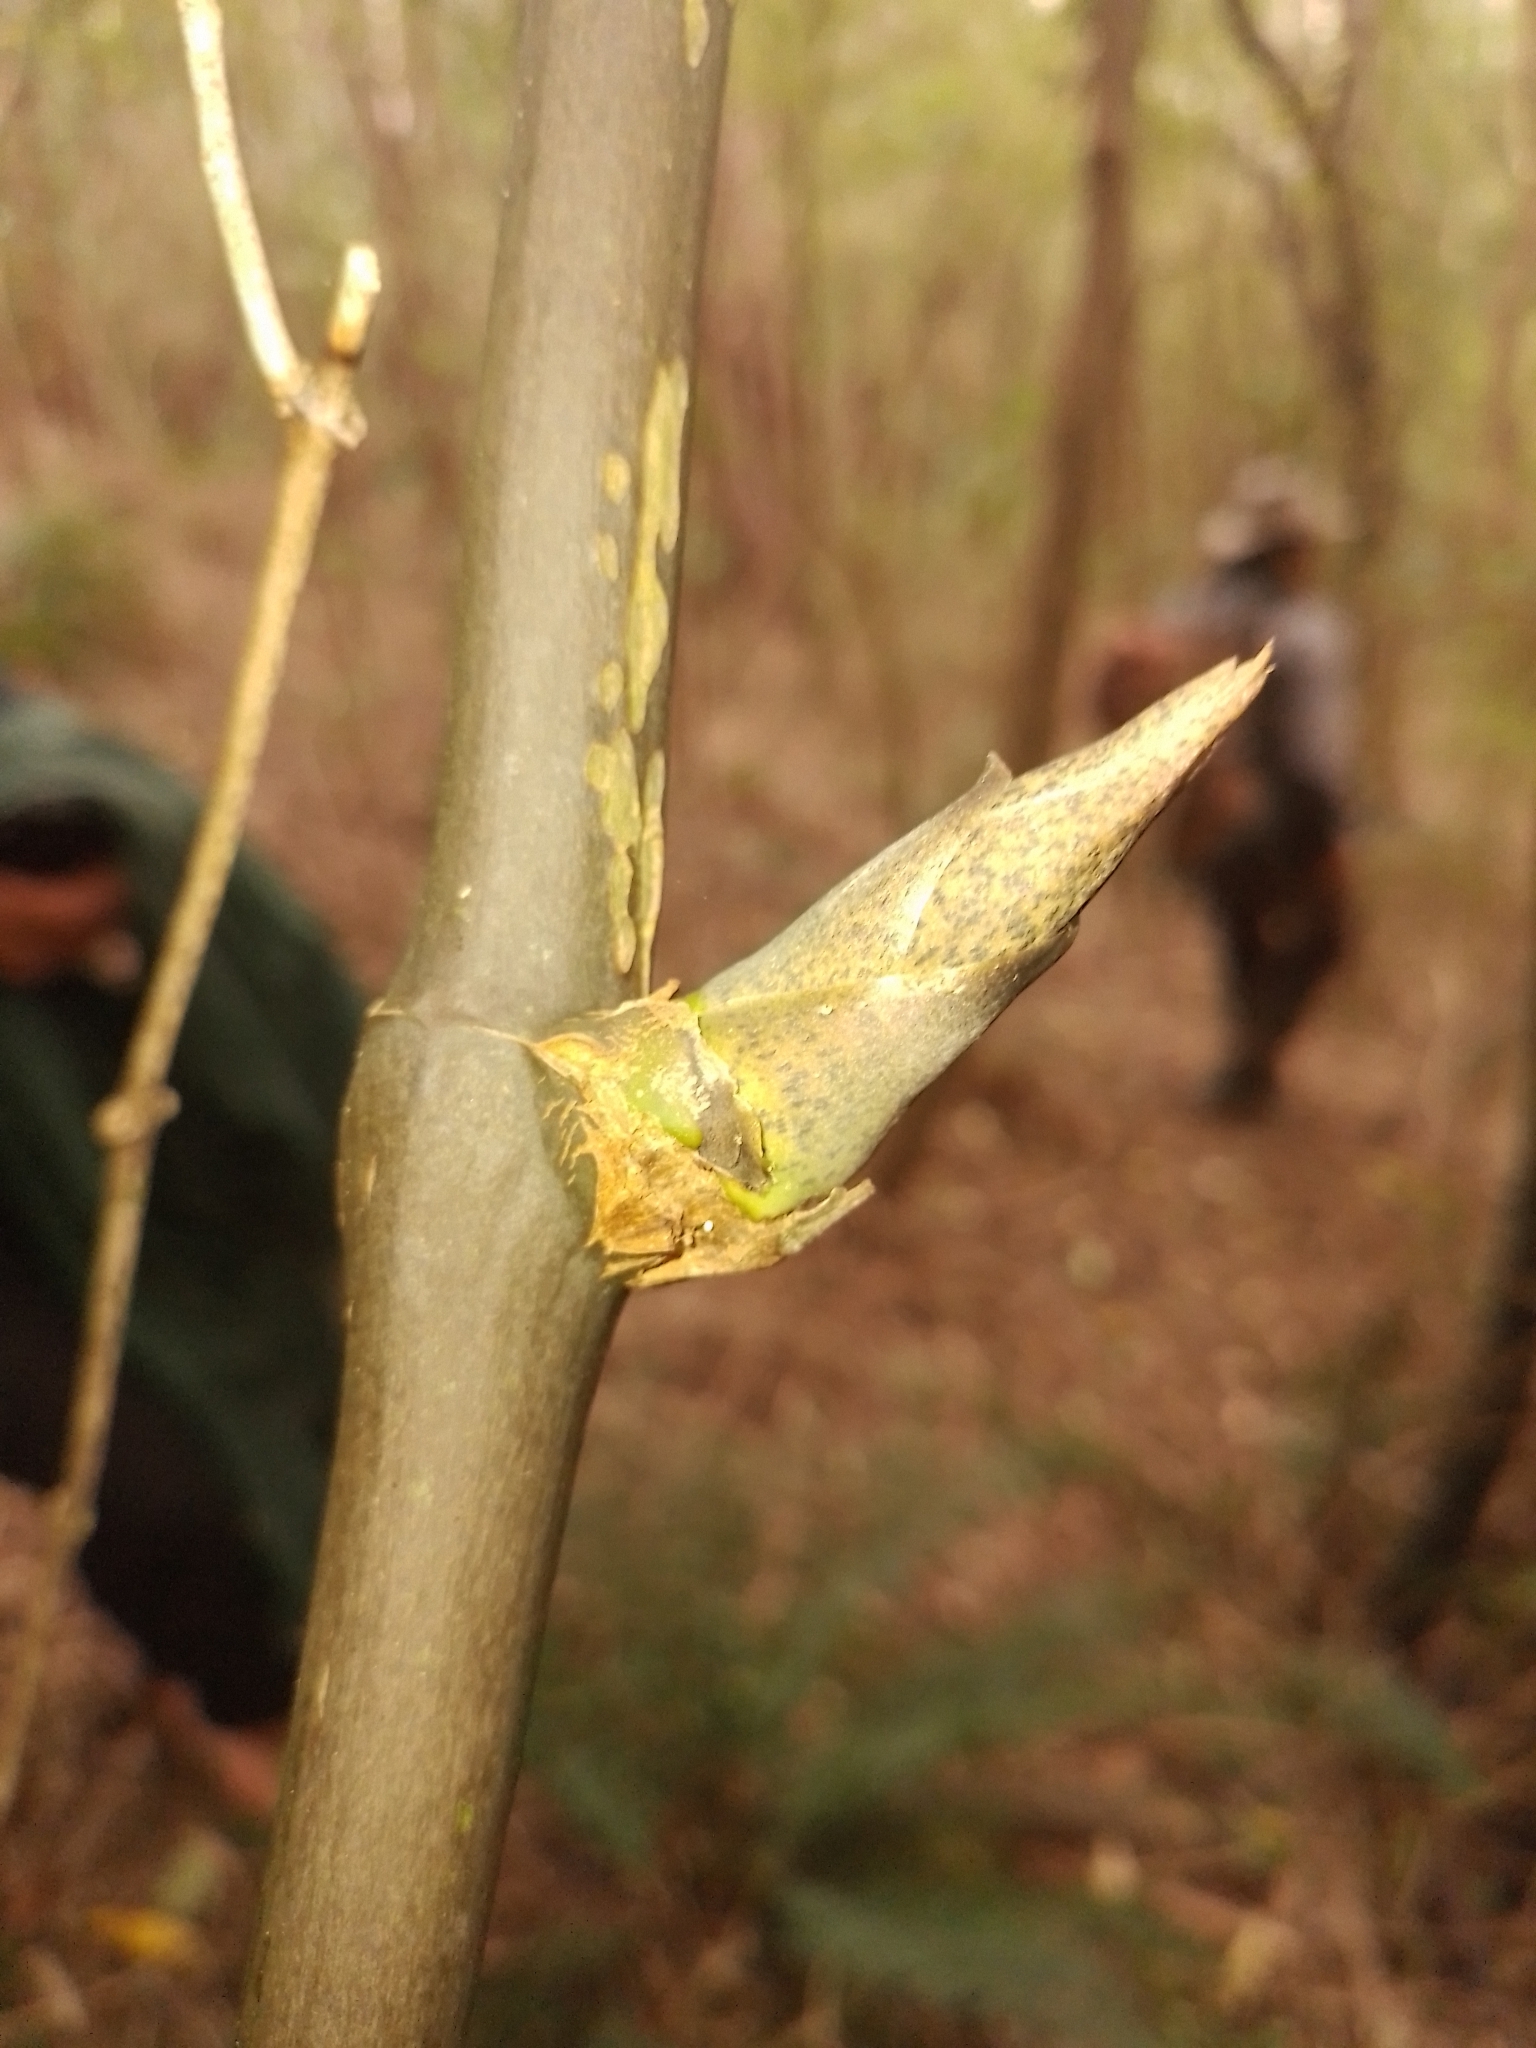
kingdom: Plantae
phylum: Tracheophyta
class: Liliopsida
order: Liliales
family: Ripogonaceae
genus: Ripogonum
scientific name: Ripogonum scandens
